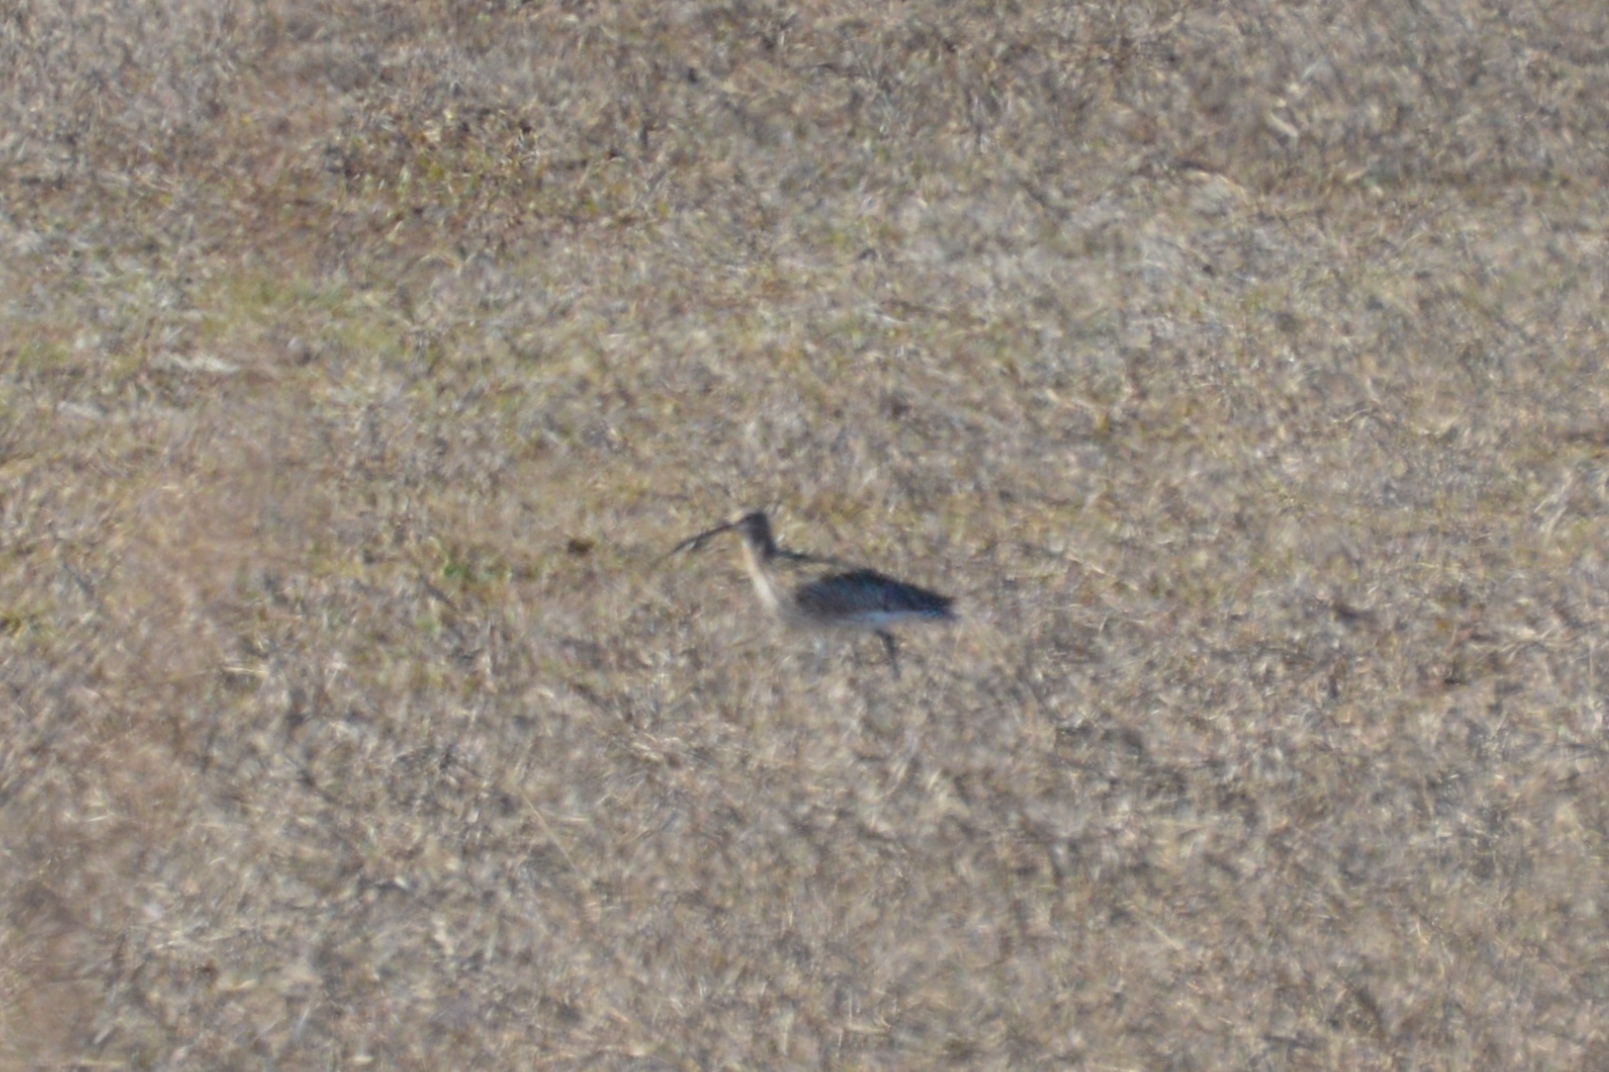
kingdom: Animalia
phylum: Chordata
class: Aves
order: Charadriiformes
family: Scolopacidae
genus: Numenius
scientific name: Numenius arquata
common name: Eurasian curlew
